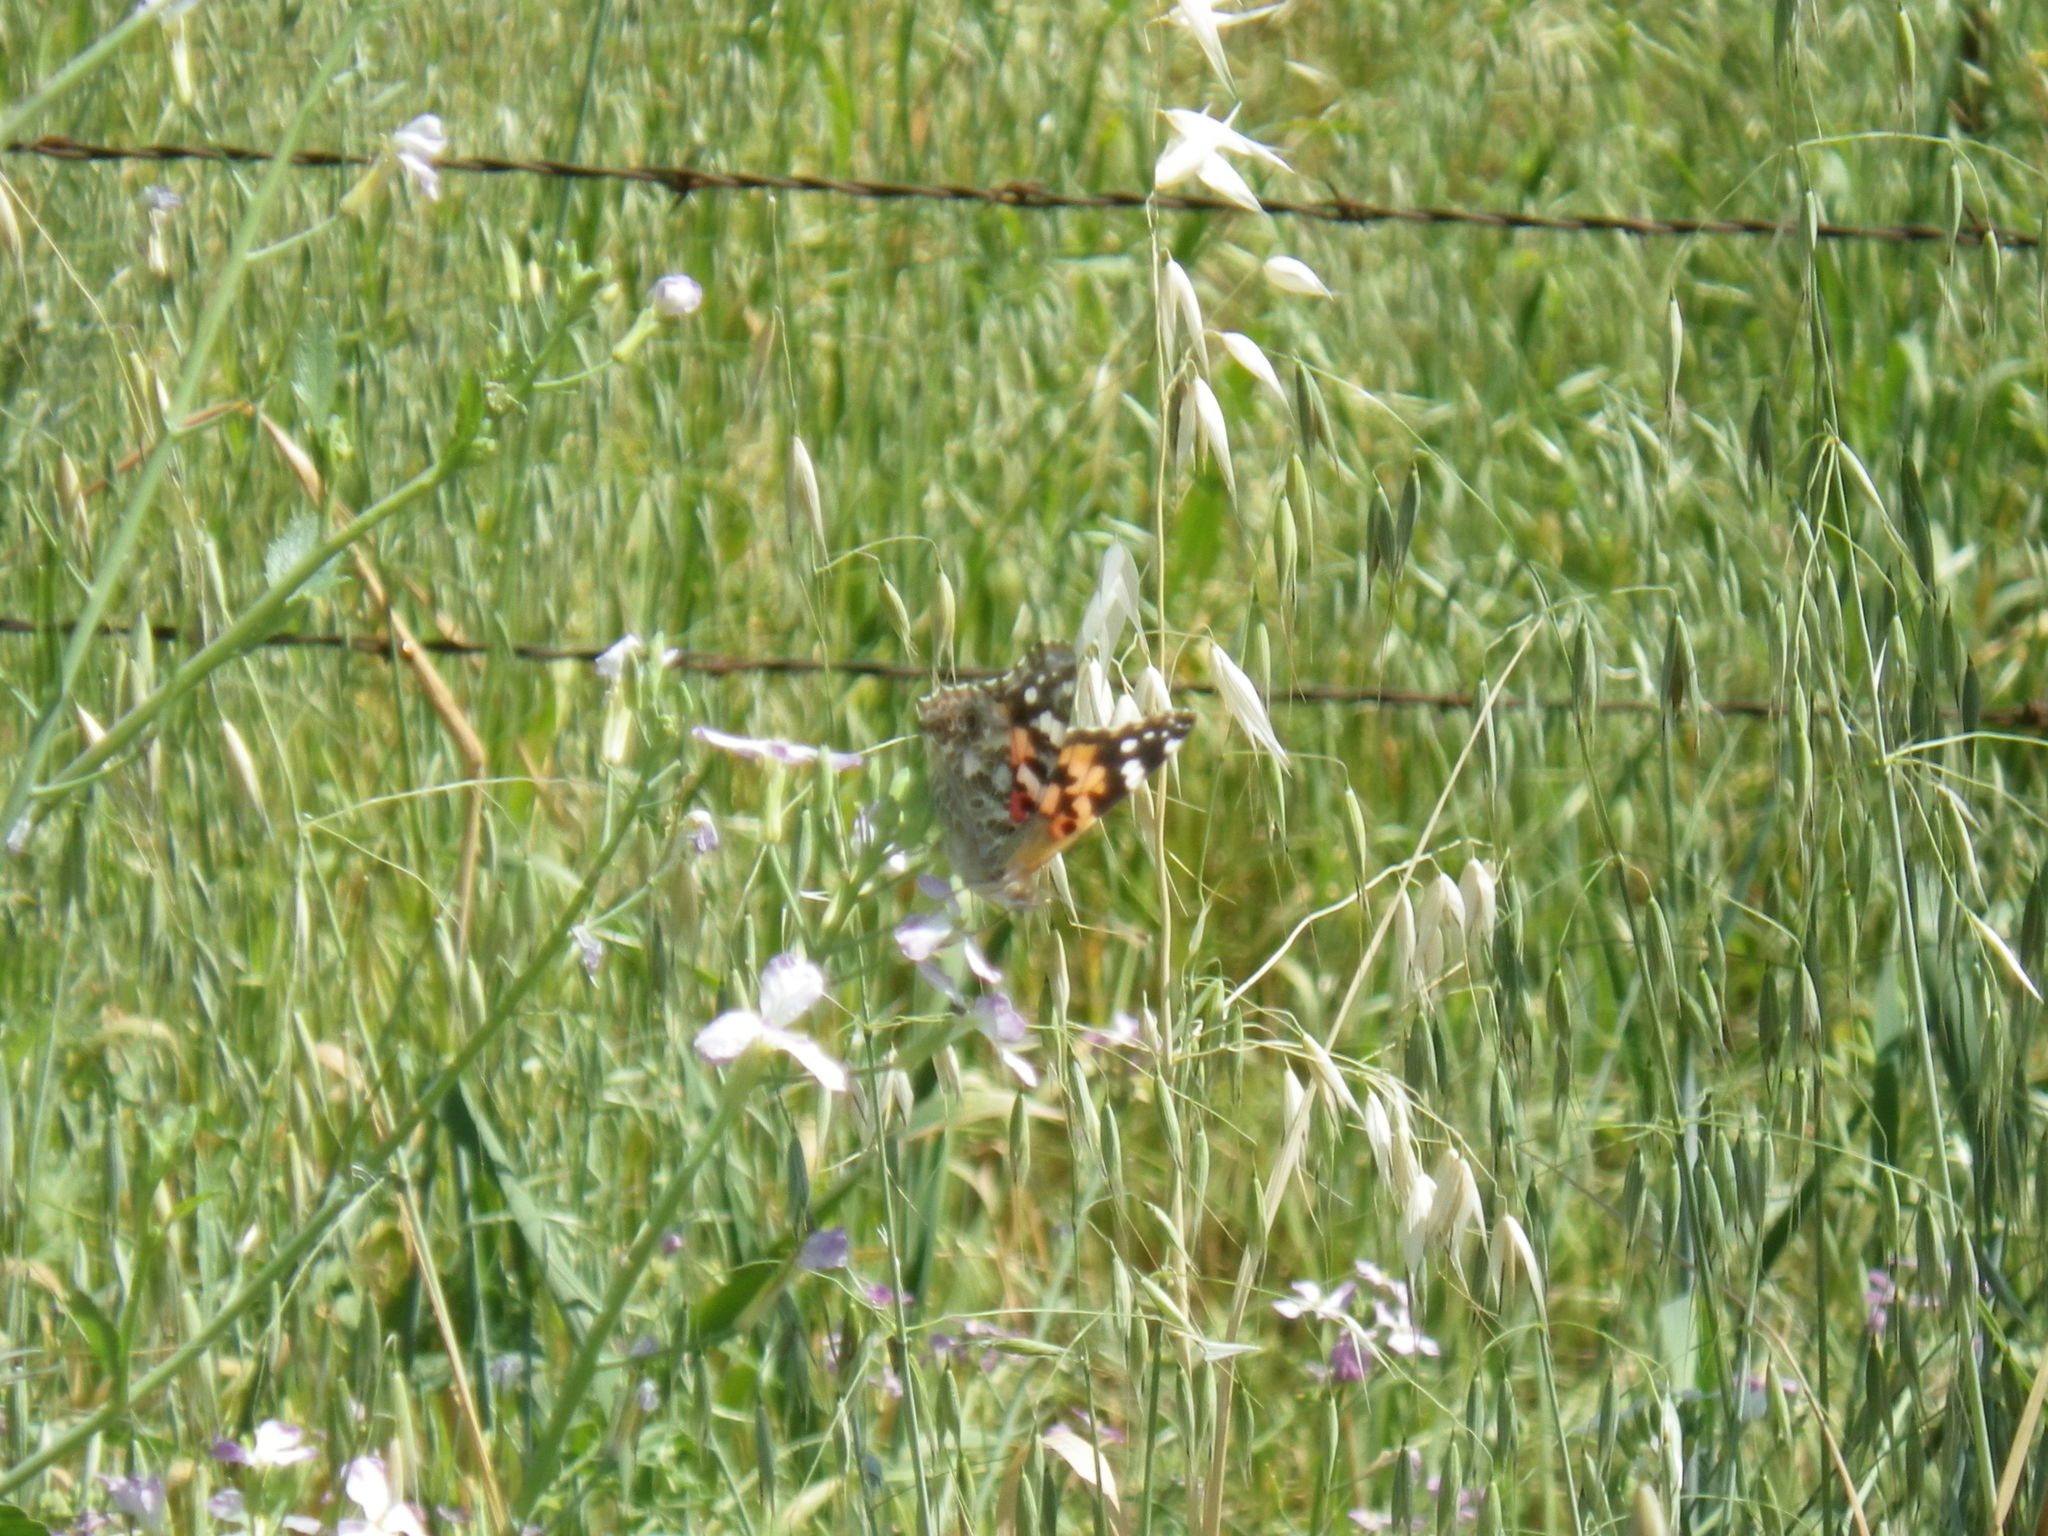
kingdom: Animalia
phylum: Arthropoda
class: Insecta
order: Lepidoptera
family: Nymphalidae
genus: Vanessa
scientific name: Vanessa cardui
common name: Painted lady
